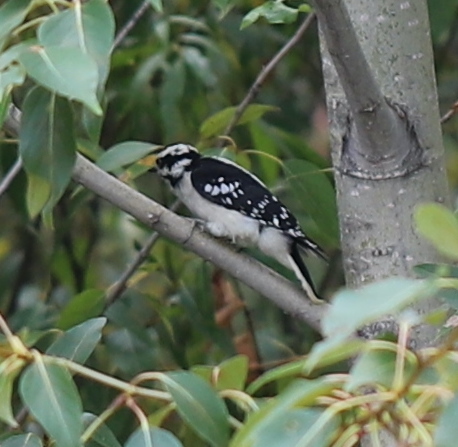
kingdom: Animalia
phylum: Chordata
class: Aves
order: Piciformes
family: Picidae
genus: Dryobates
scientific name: Dryobates pubescens
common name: Downy woodpecker
